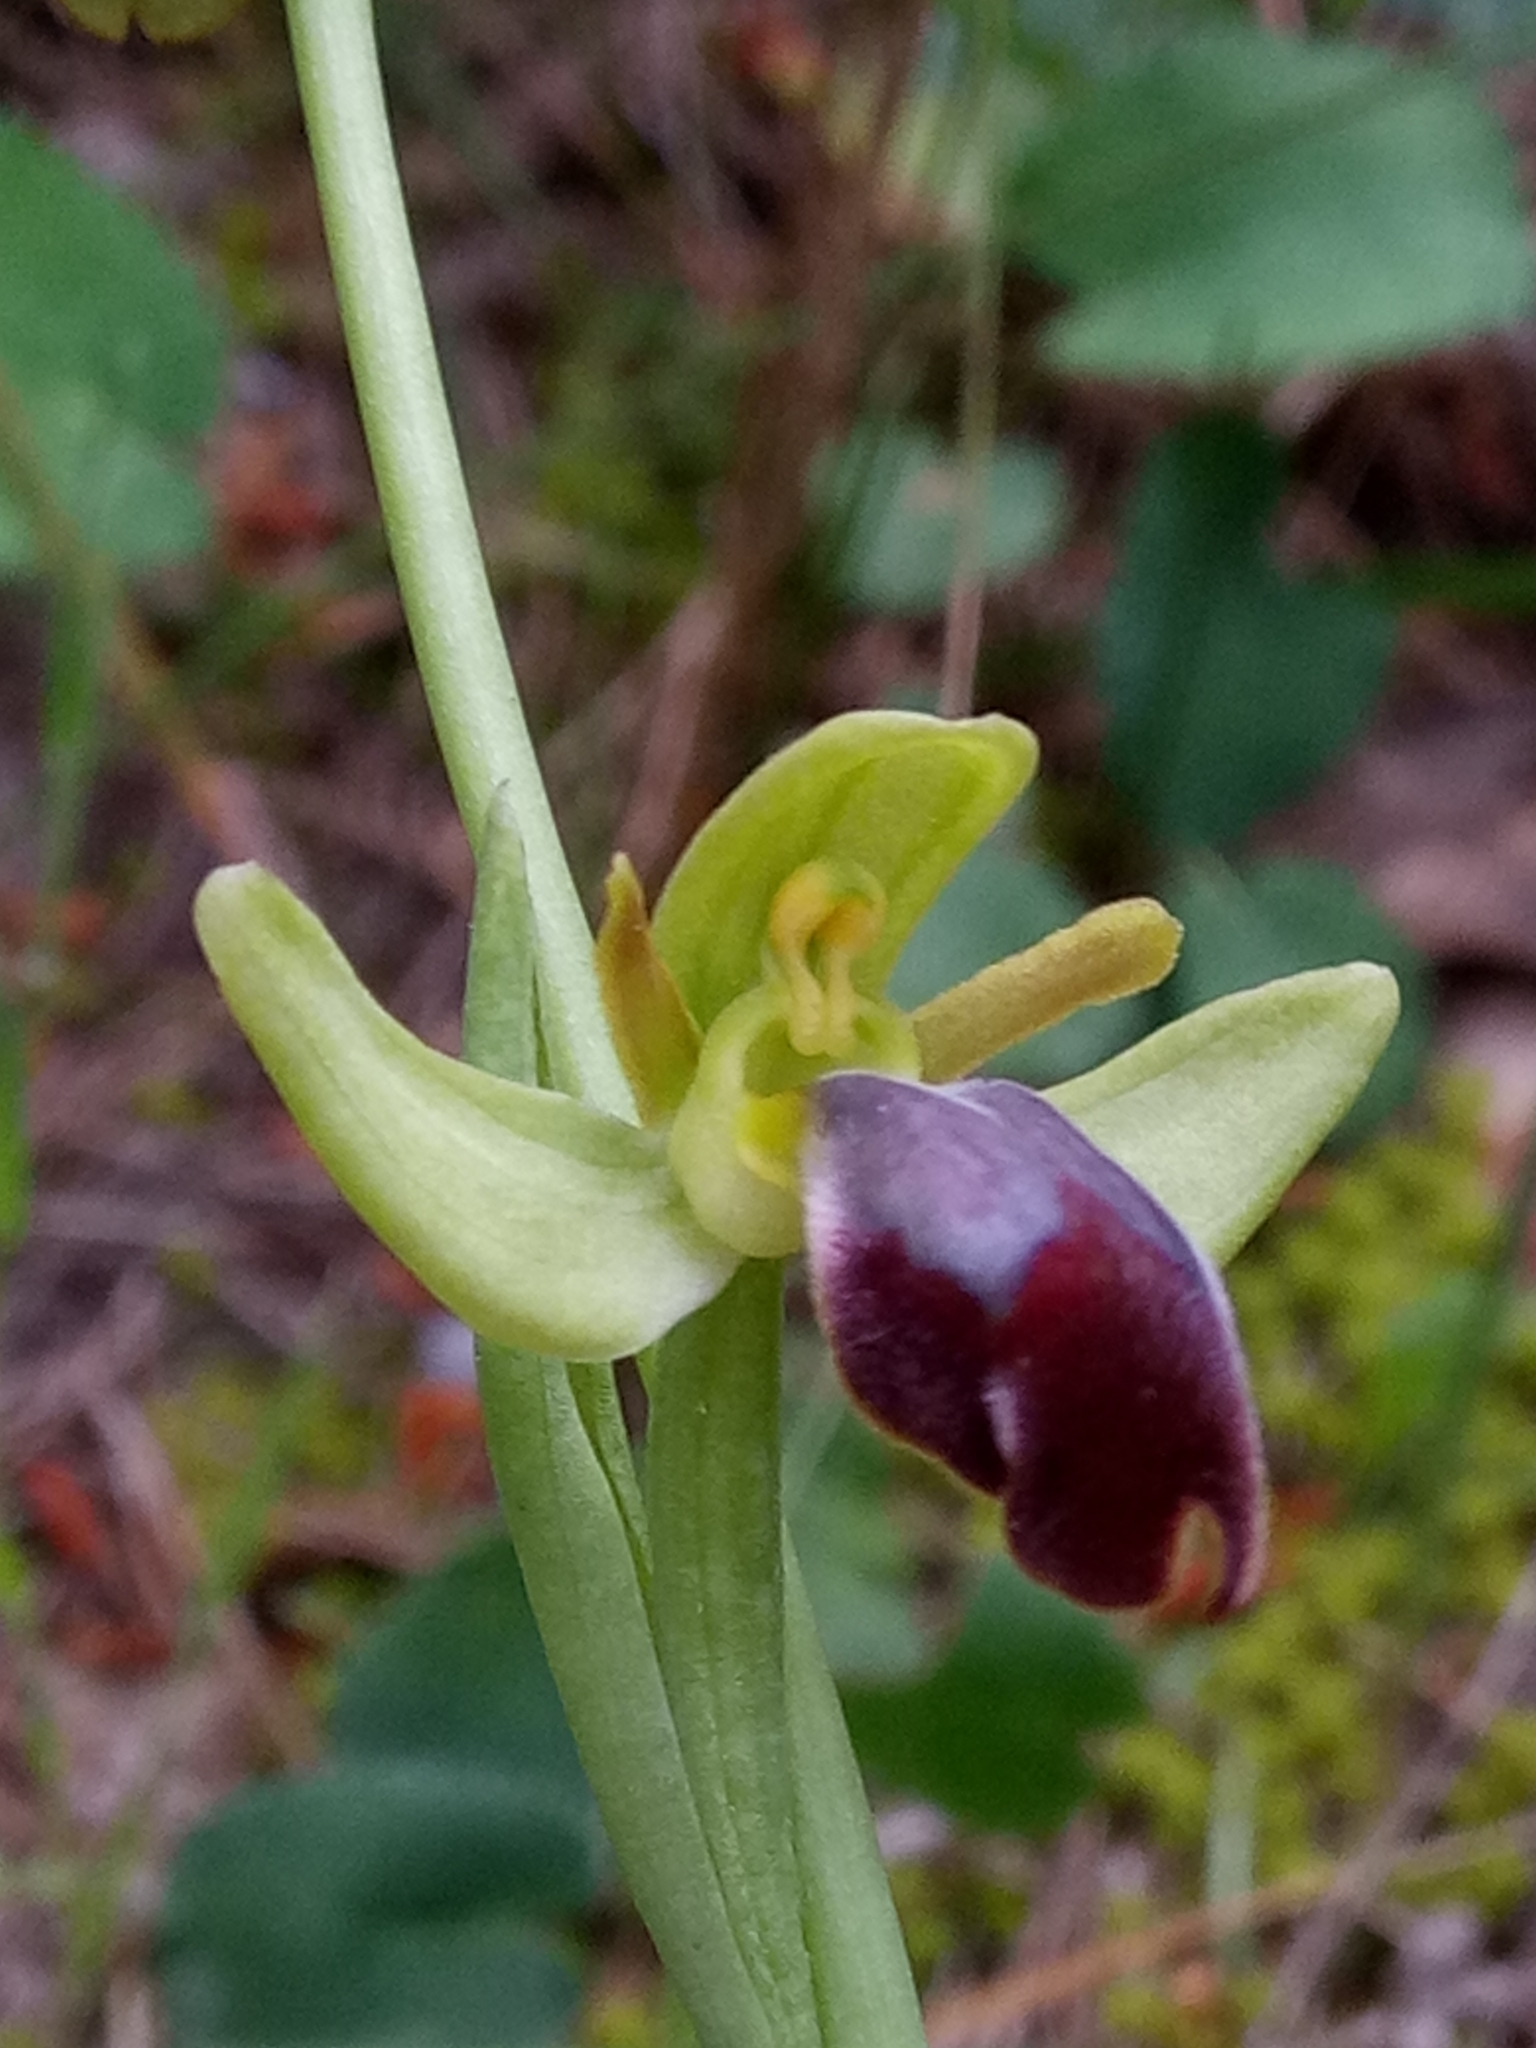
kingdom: Plantae
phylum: Tracheophyta
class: Liliopsida
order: Asparagales
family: Orchidaceae
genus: Ophrys
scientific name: Ophrys fusca
